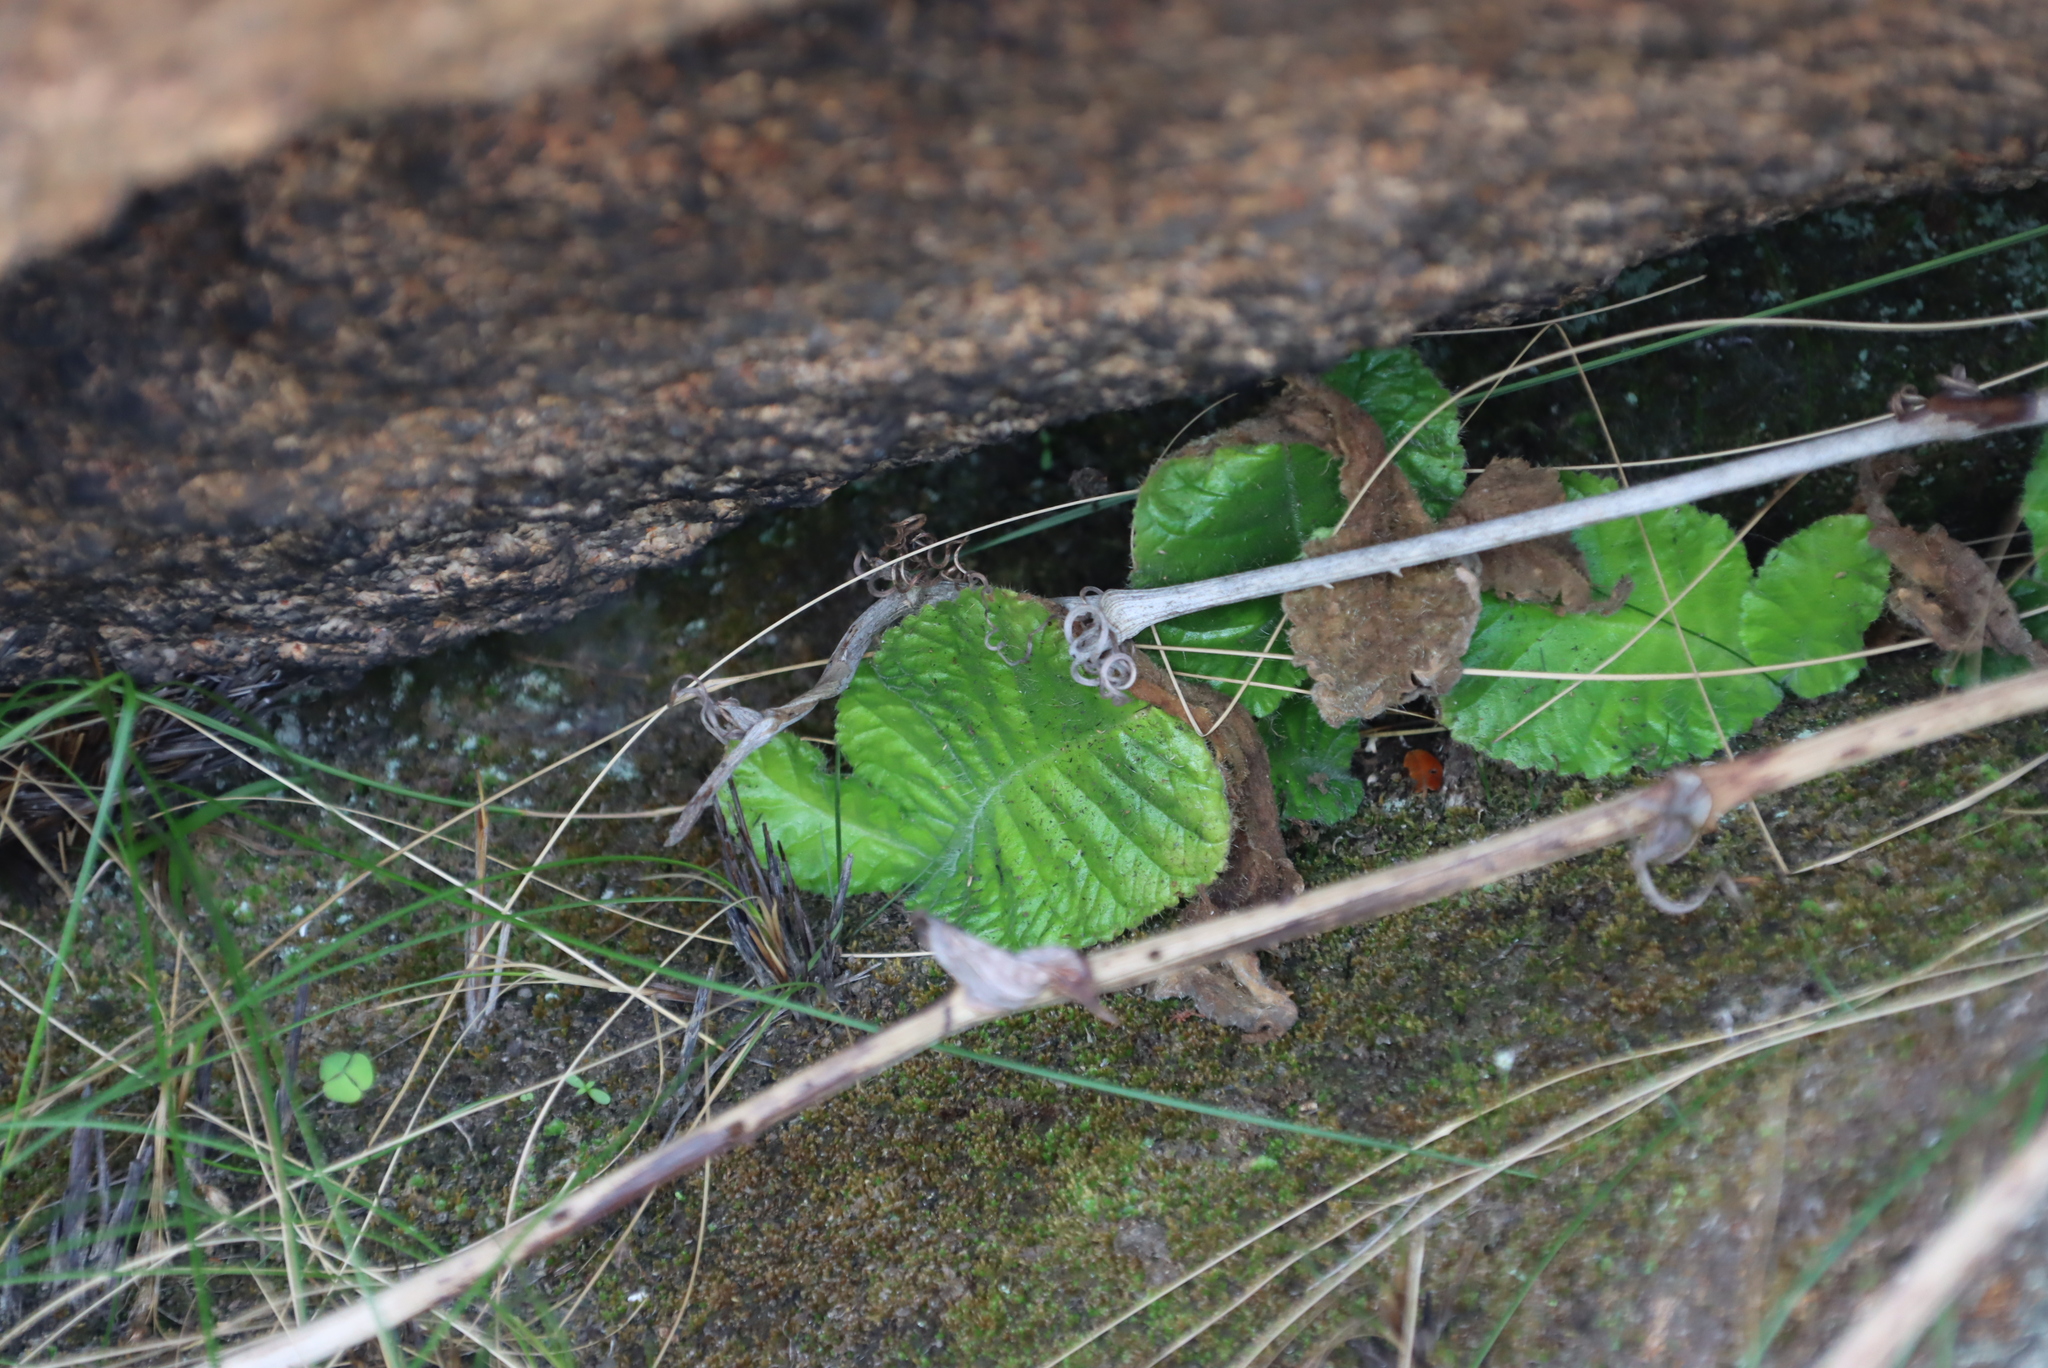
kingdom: Plantae
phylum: Tracheophyta
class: Magnoliopsida
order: Lamiales
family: Gesneriaceae
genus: Streptocarpus
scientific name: Streptocarpus davyi
